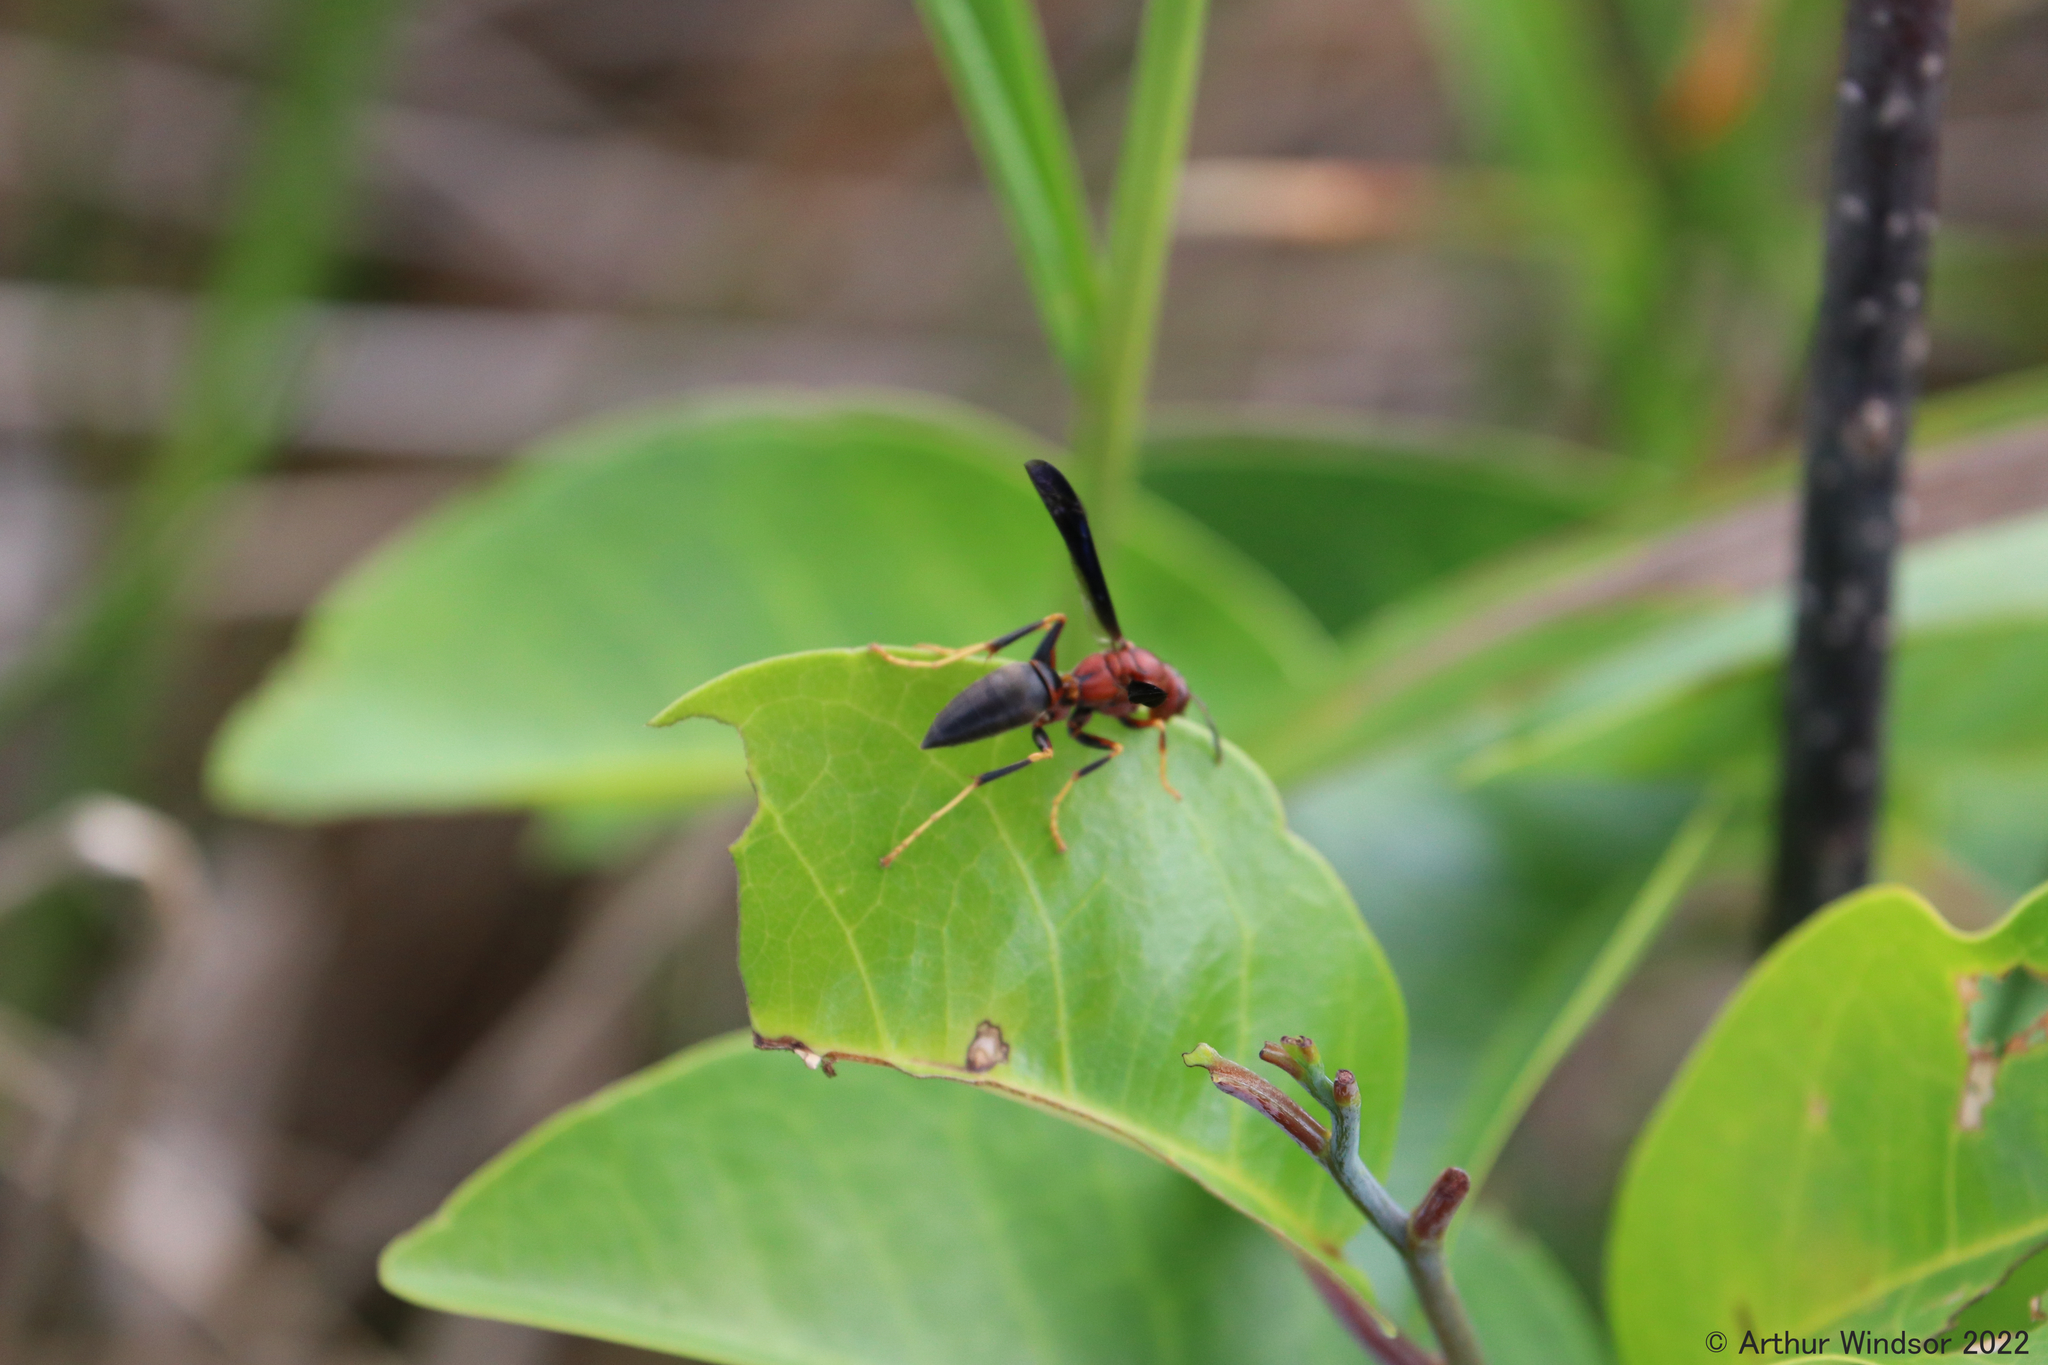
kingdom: Animalia
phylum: Arthropoda
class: Insecta
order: Hymenoptera
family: Eumenidae
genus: Polistes
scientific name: Polistes metricus
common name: Metric paper wasp
